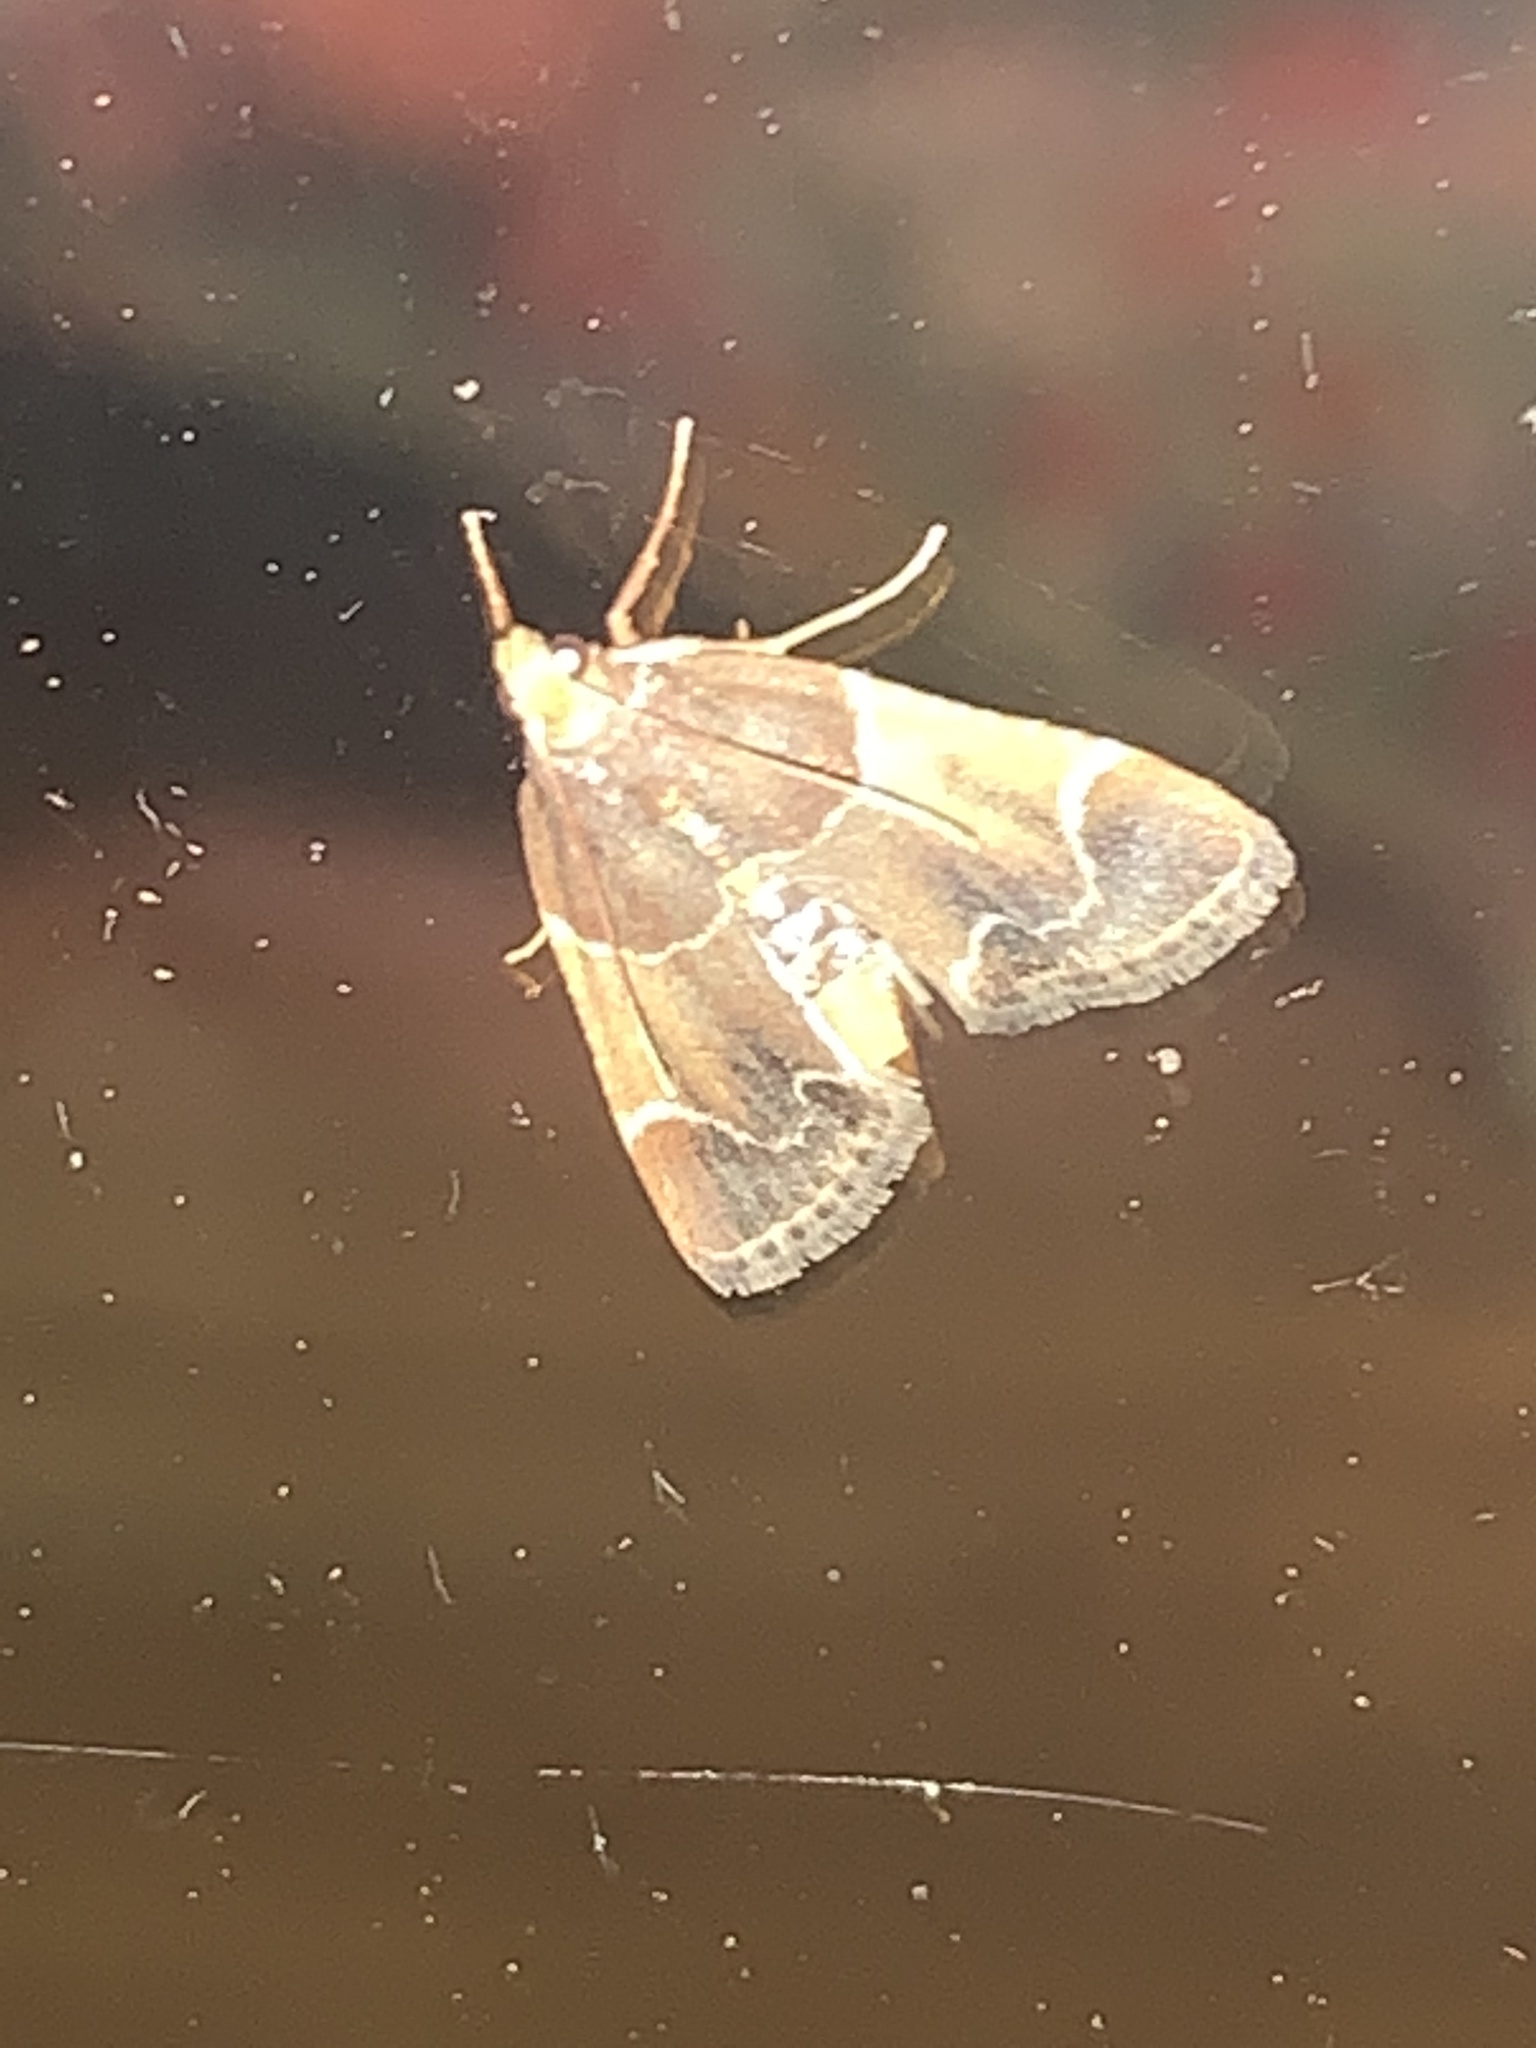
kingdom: Animalia
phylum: Arthropoda
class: Insecta
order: Lepidoptera
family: Pyralidae
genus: Pyralis
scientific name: Pyralis farinalis
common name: Meal moth
